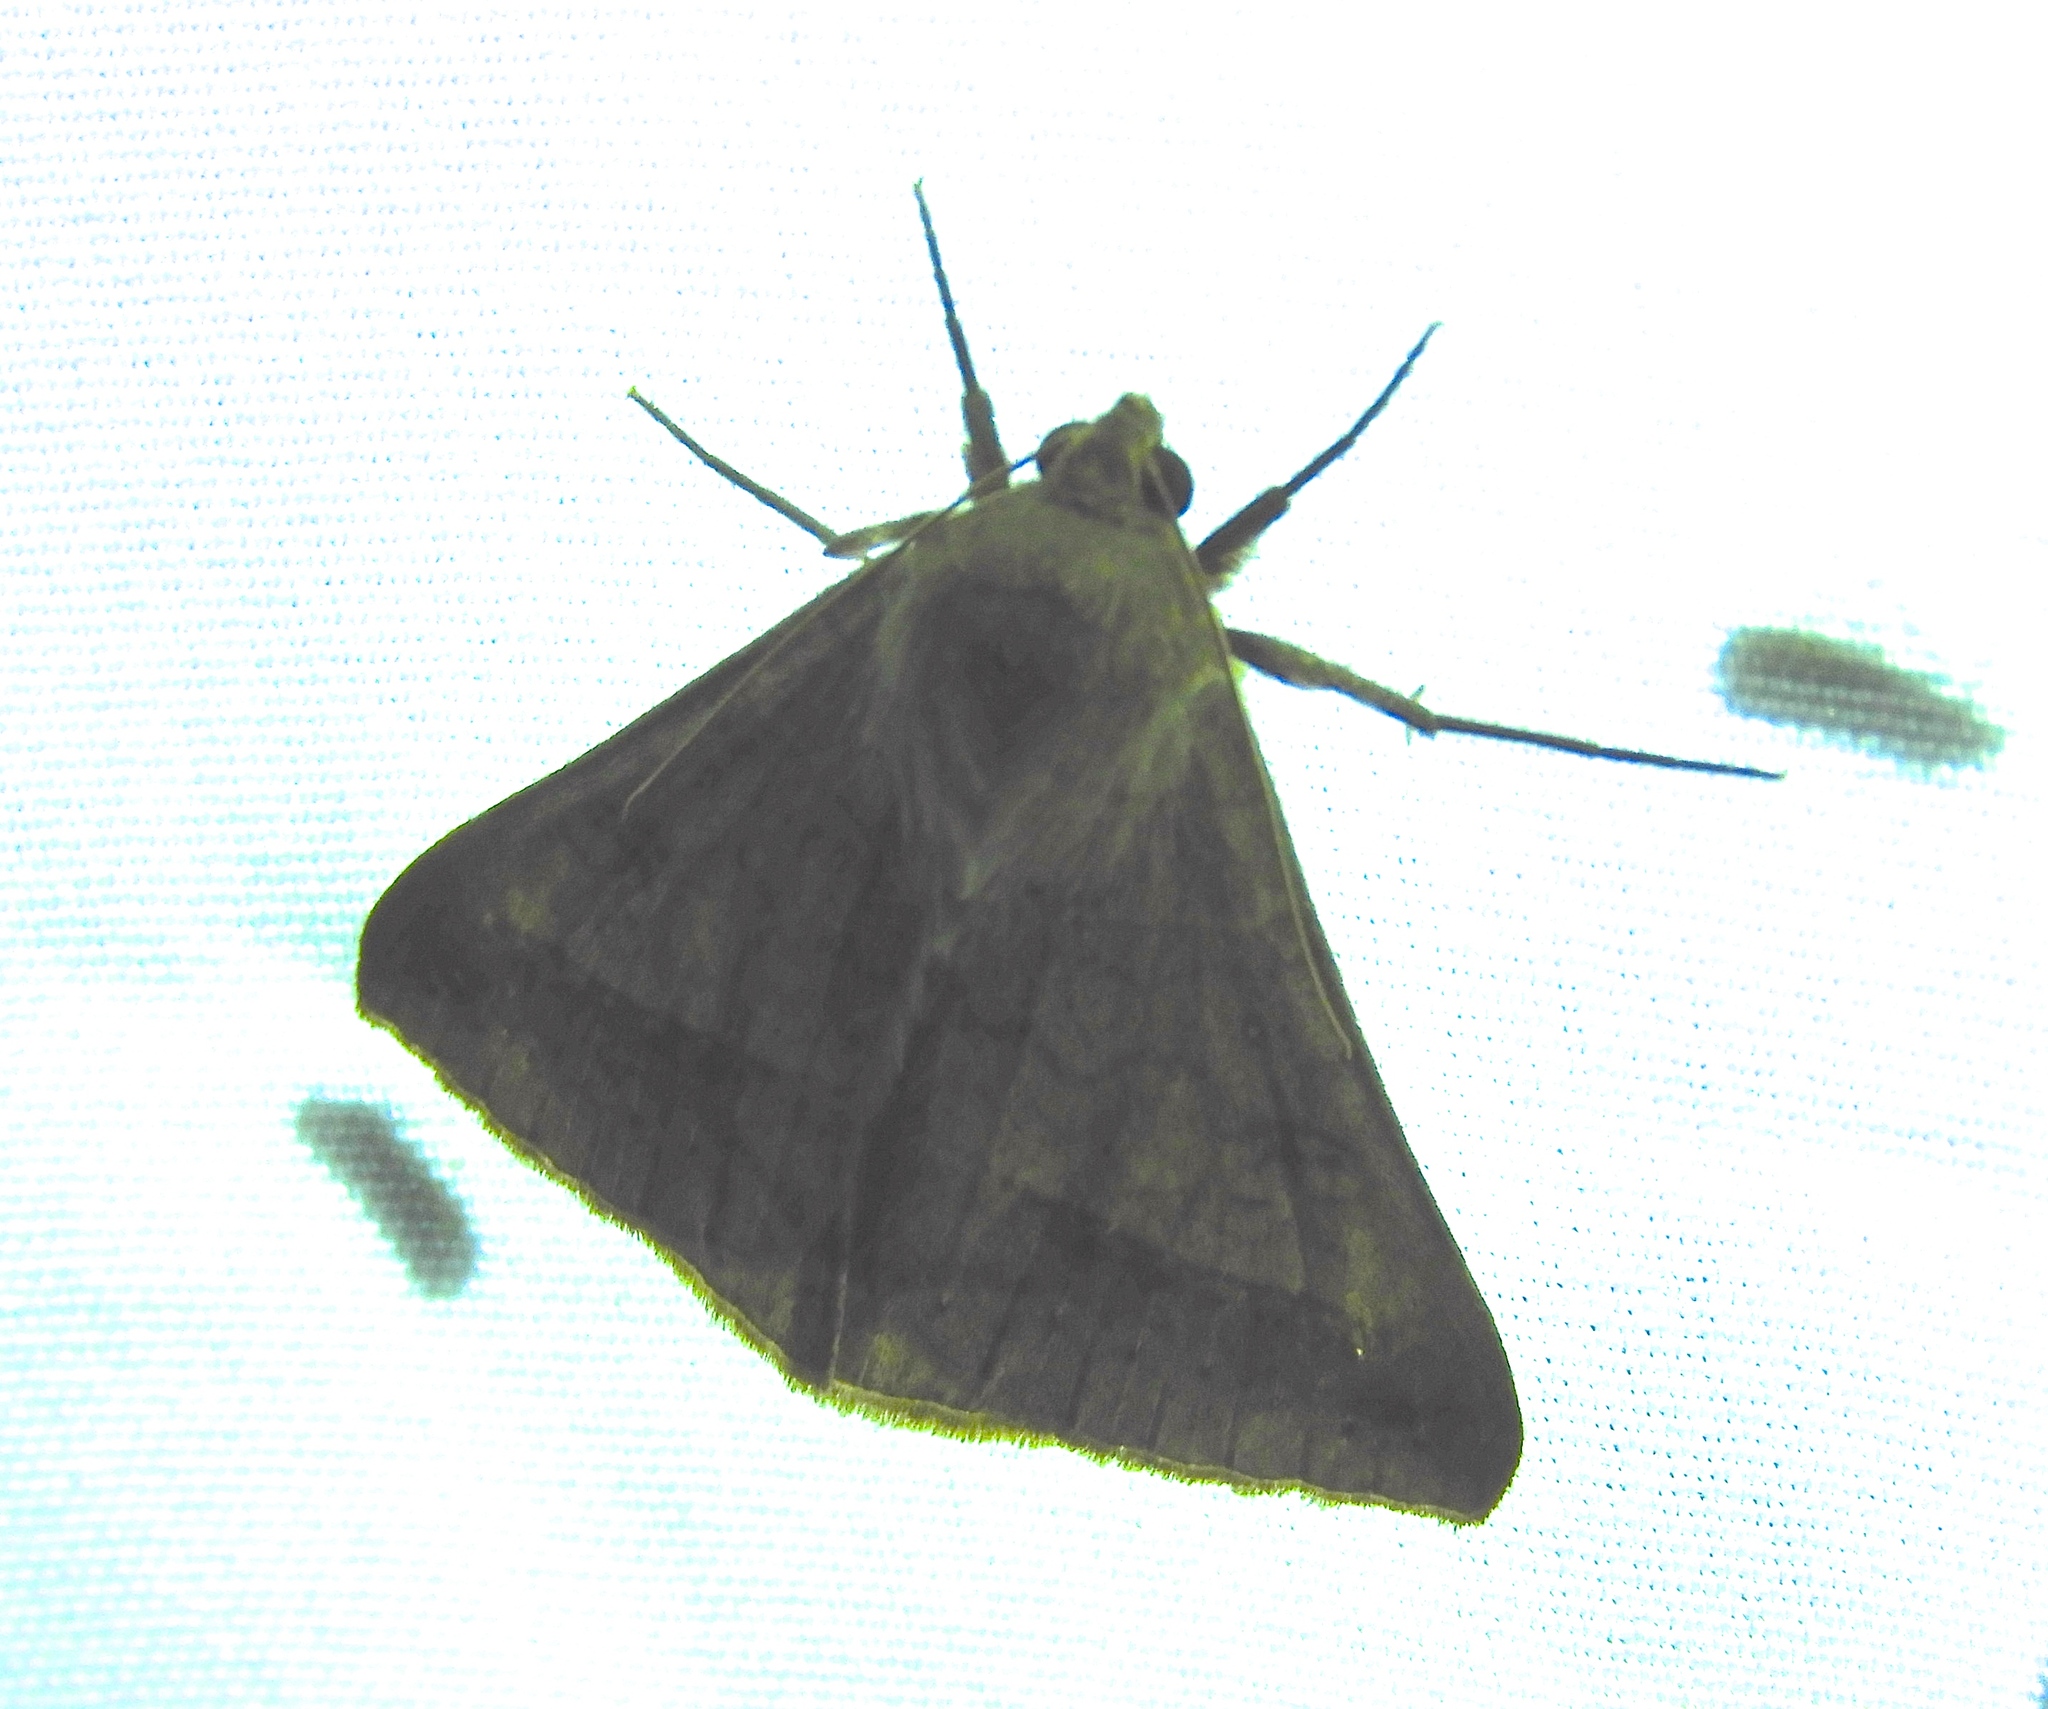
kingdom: Animalia
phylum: Arthropoda
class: Insecta
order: Lepidoptera
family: Erebidae
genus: Mocis
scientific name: Mocis latipes
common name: Striped grass looper
